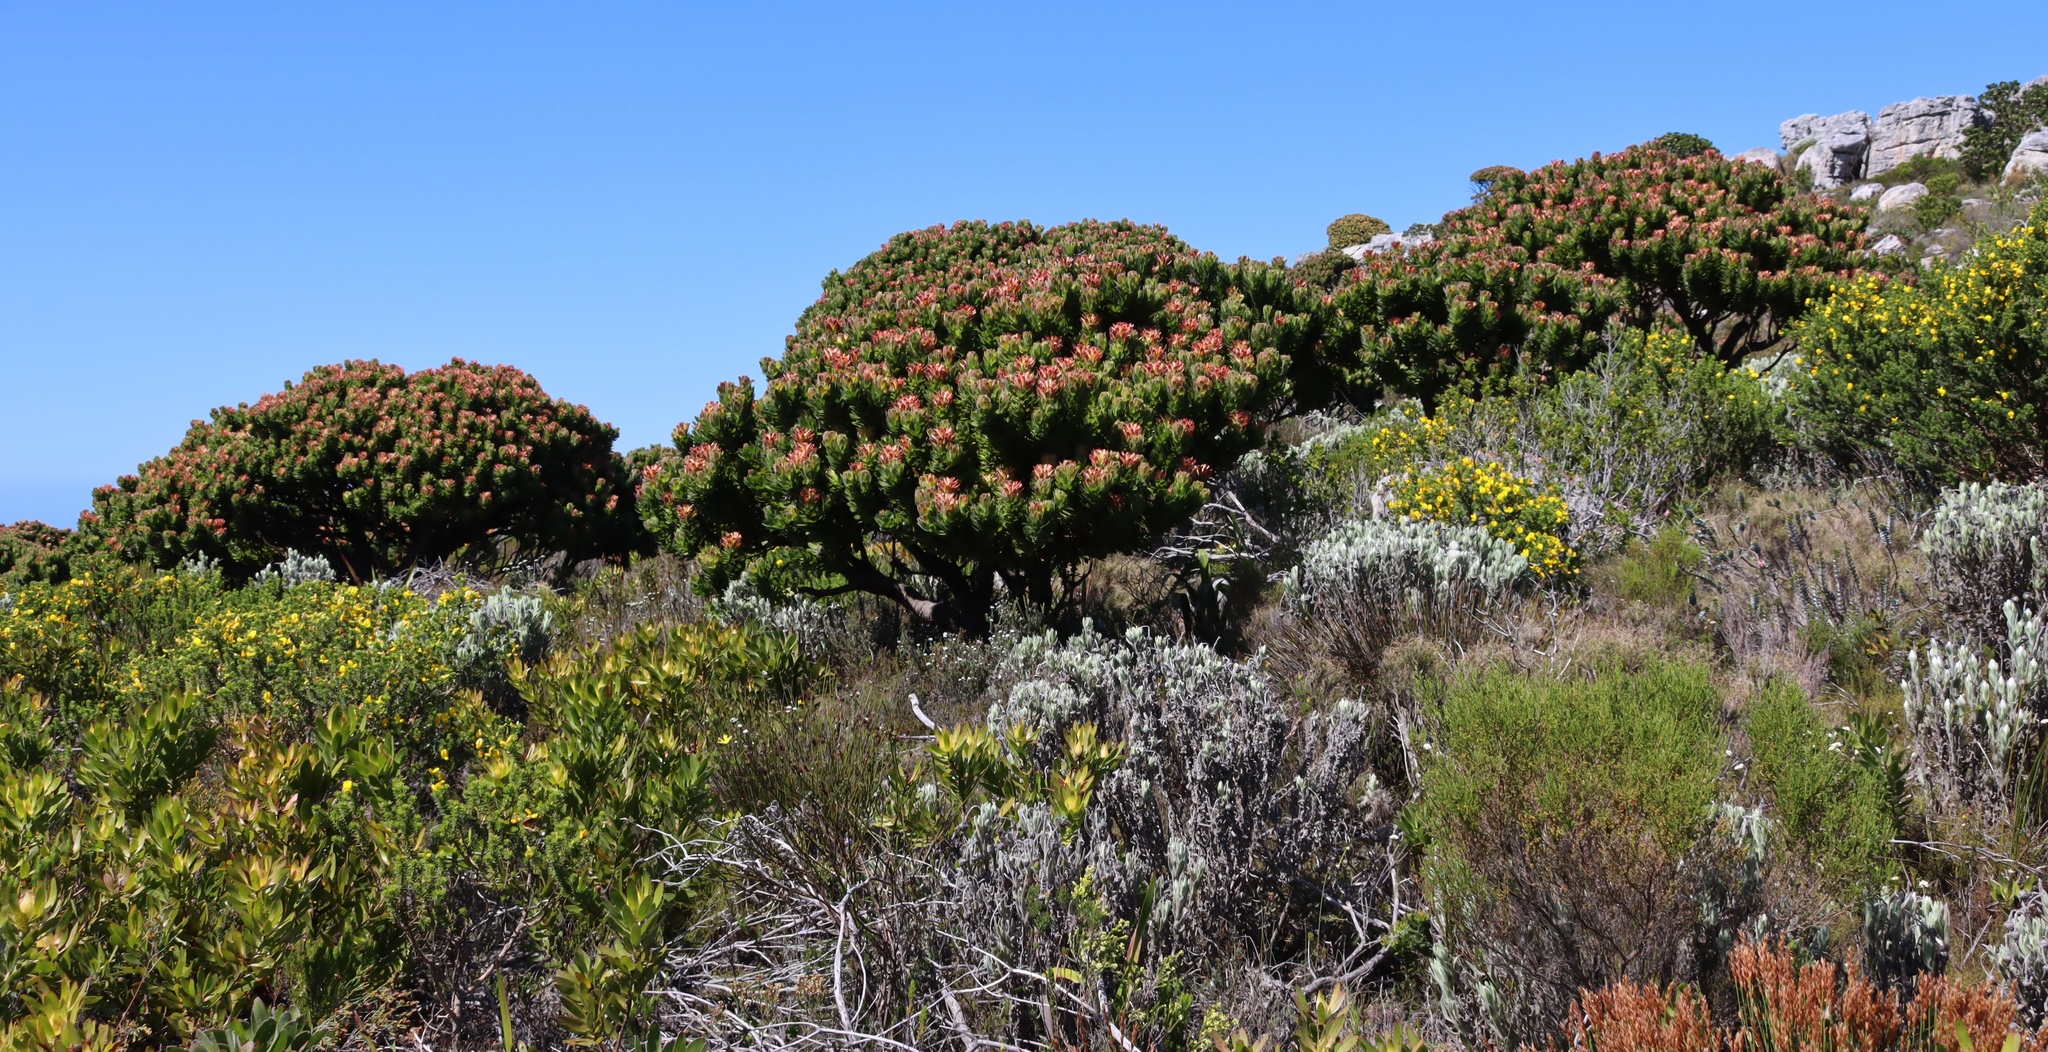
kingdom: Plantae
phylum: Tracheophyta
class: Magnoliopsida
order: Proteales
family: Proteaceae
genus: Mimetes
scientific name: Mimetes fimbriifolius
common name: Fringed bottlebrush
